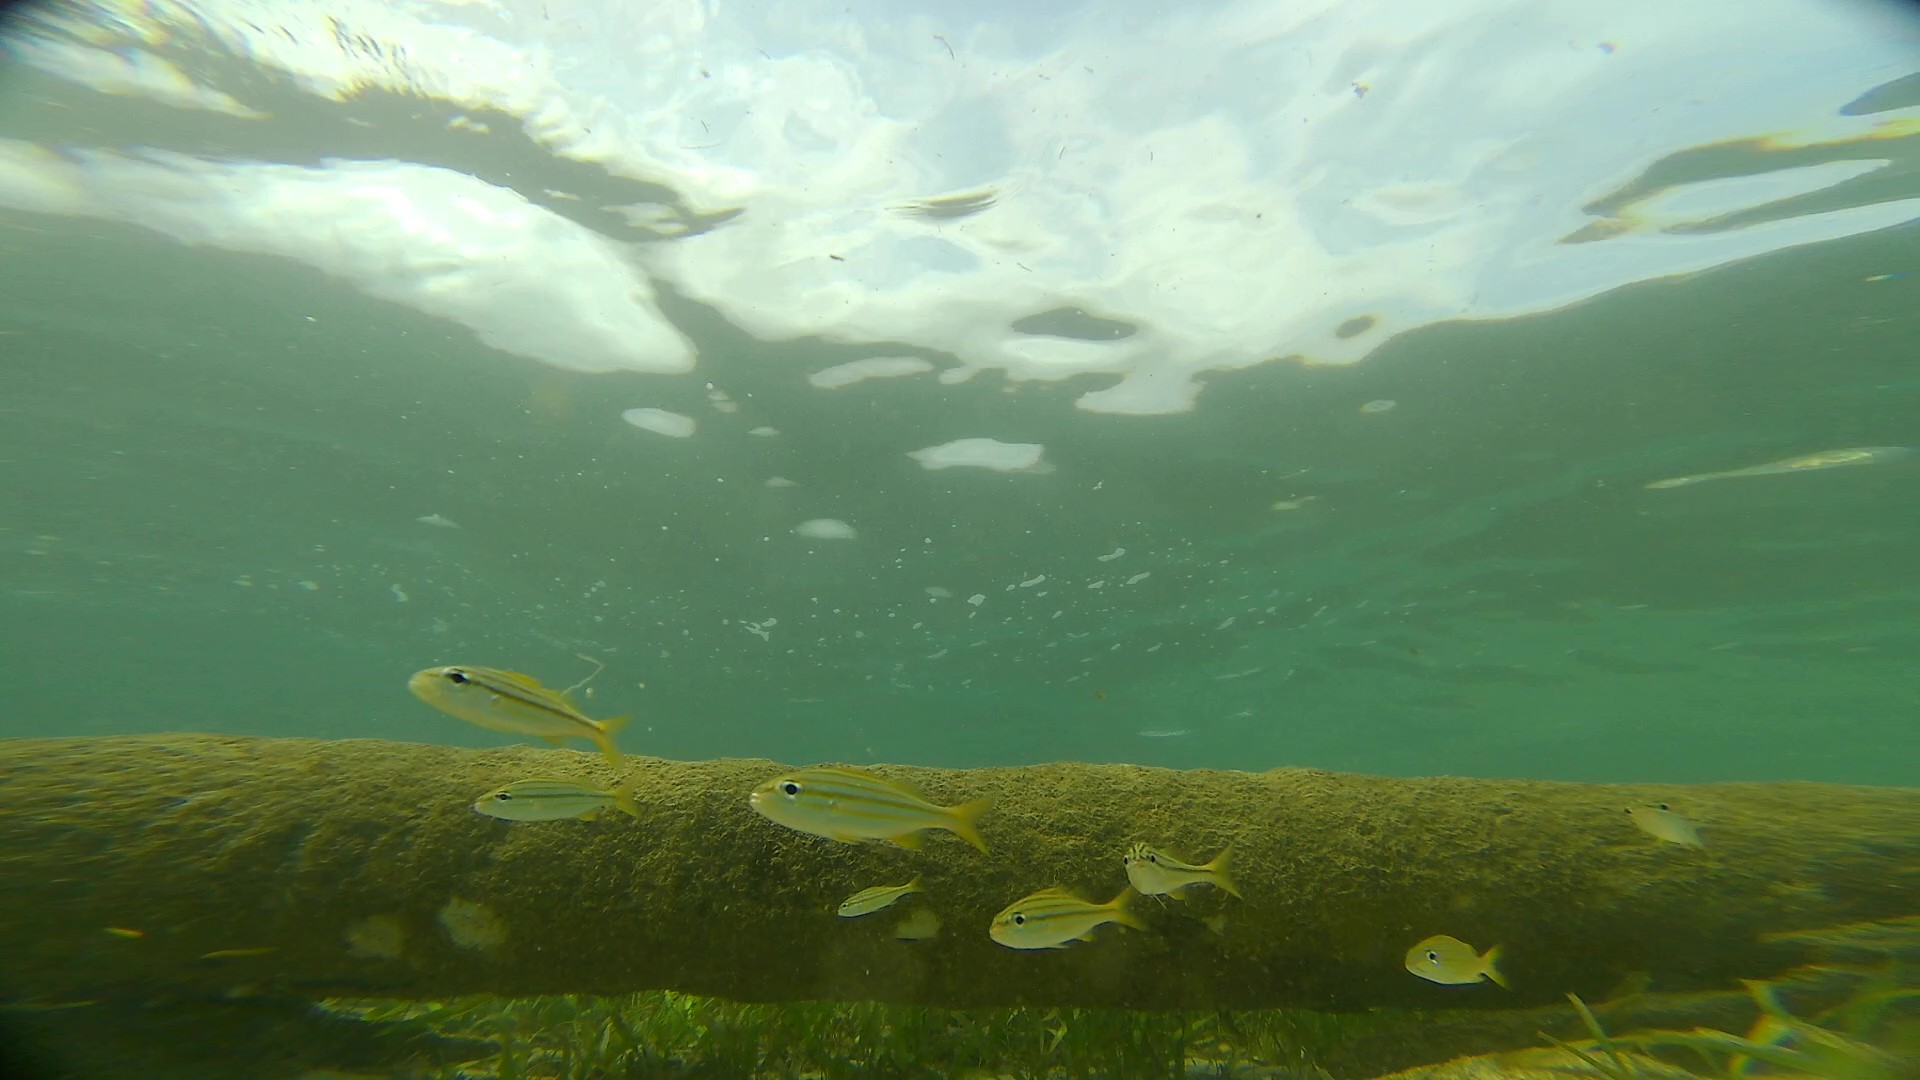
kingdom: Animalia
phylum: Chordata
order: Perciformes
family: Haemulidae
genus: Haemulon
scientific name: Haemulon chrysargyreum
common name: Smallmouth grunt
